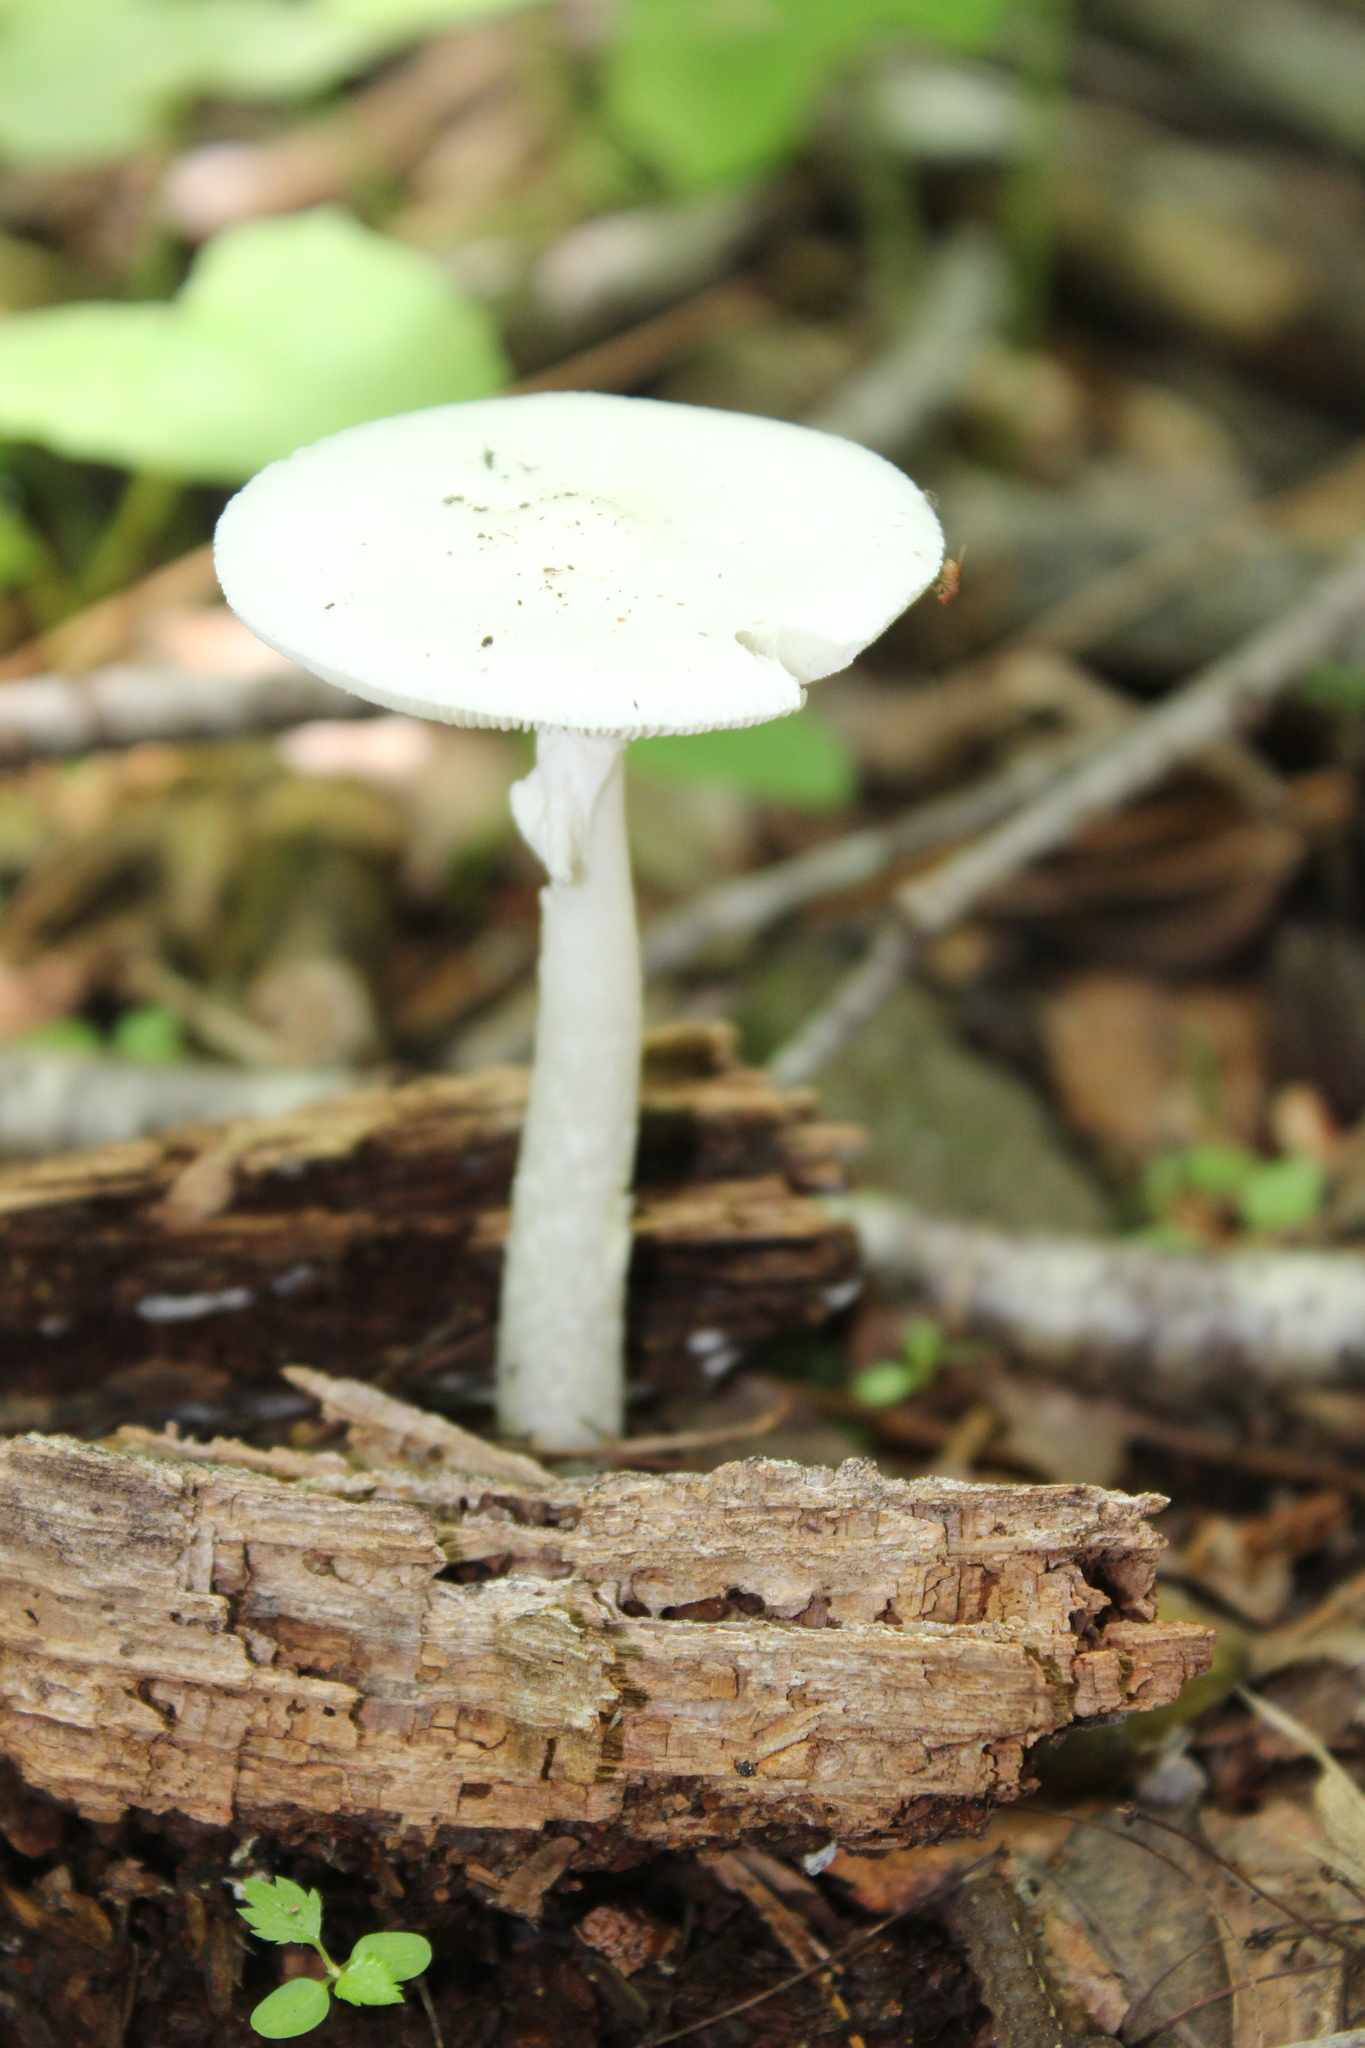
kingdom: Fungi
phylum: Basidiomycota
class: Agaricomycetes
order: Agaricales
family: Amanitaceae
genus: Amanita
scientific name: Amanita bisporigera
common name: Eastern north american destroying angel
